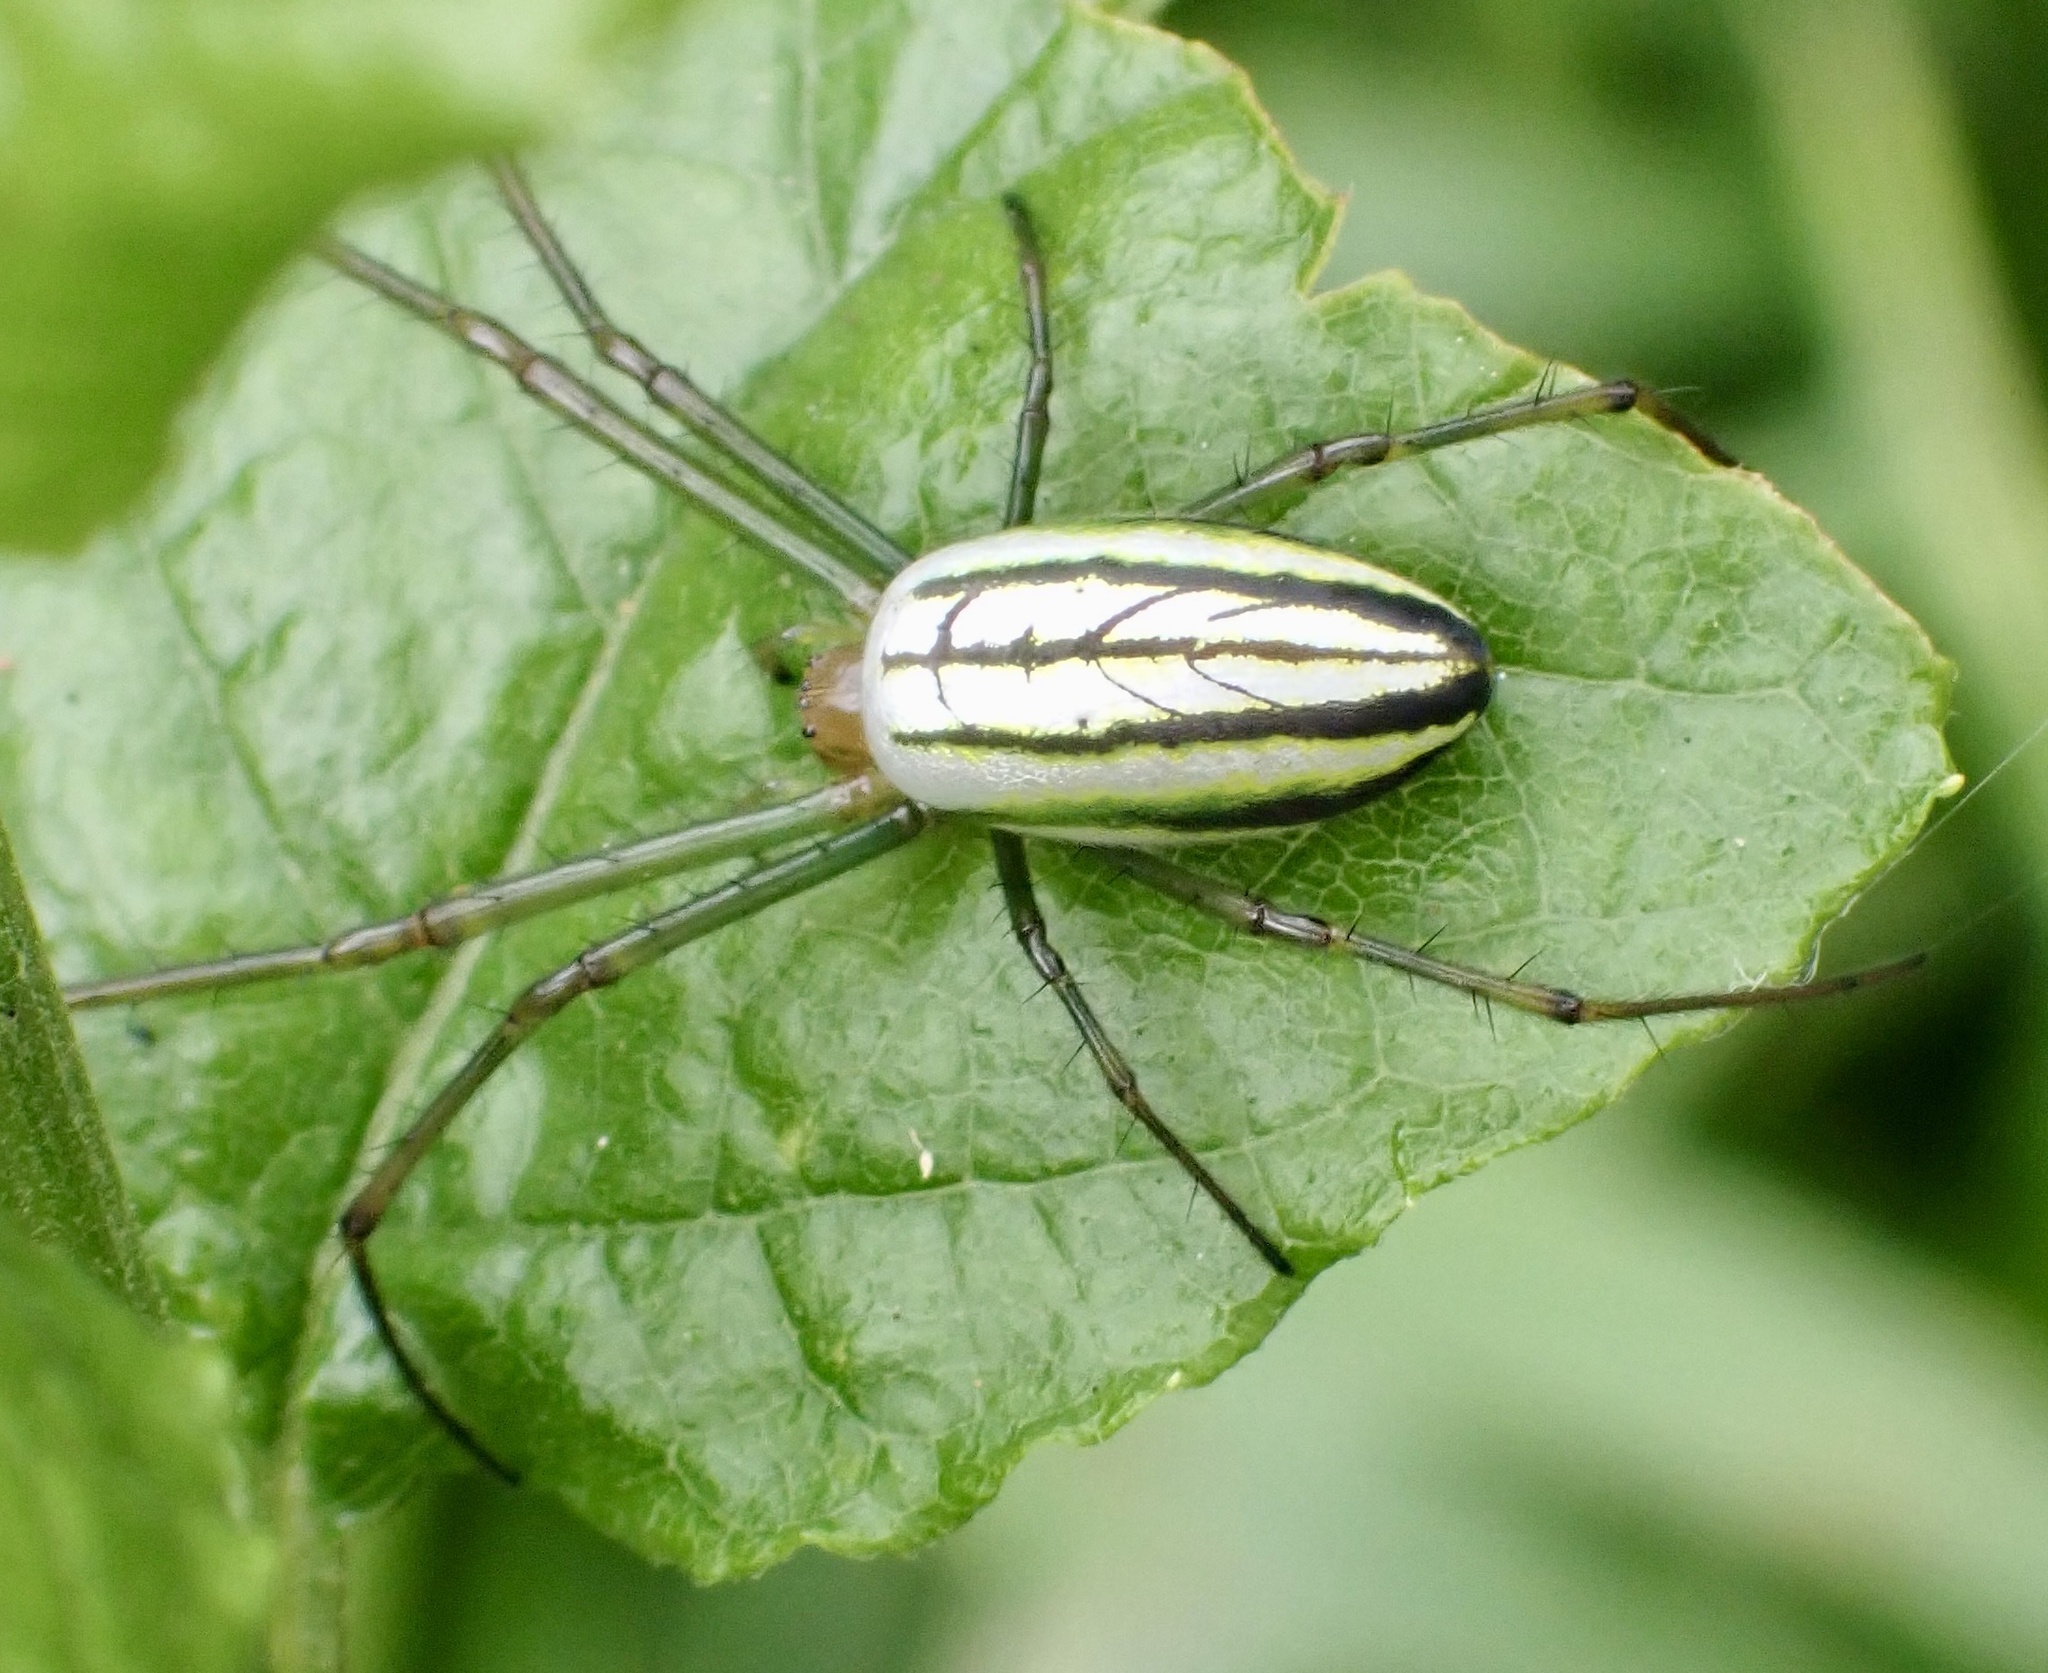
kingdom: Animalia
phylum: Arthropoda
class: Arachnida
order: Araneae
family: Tetragnathidae
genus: Leucauge
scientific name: Leucauge celebesiana
